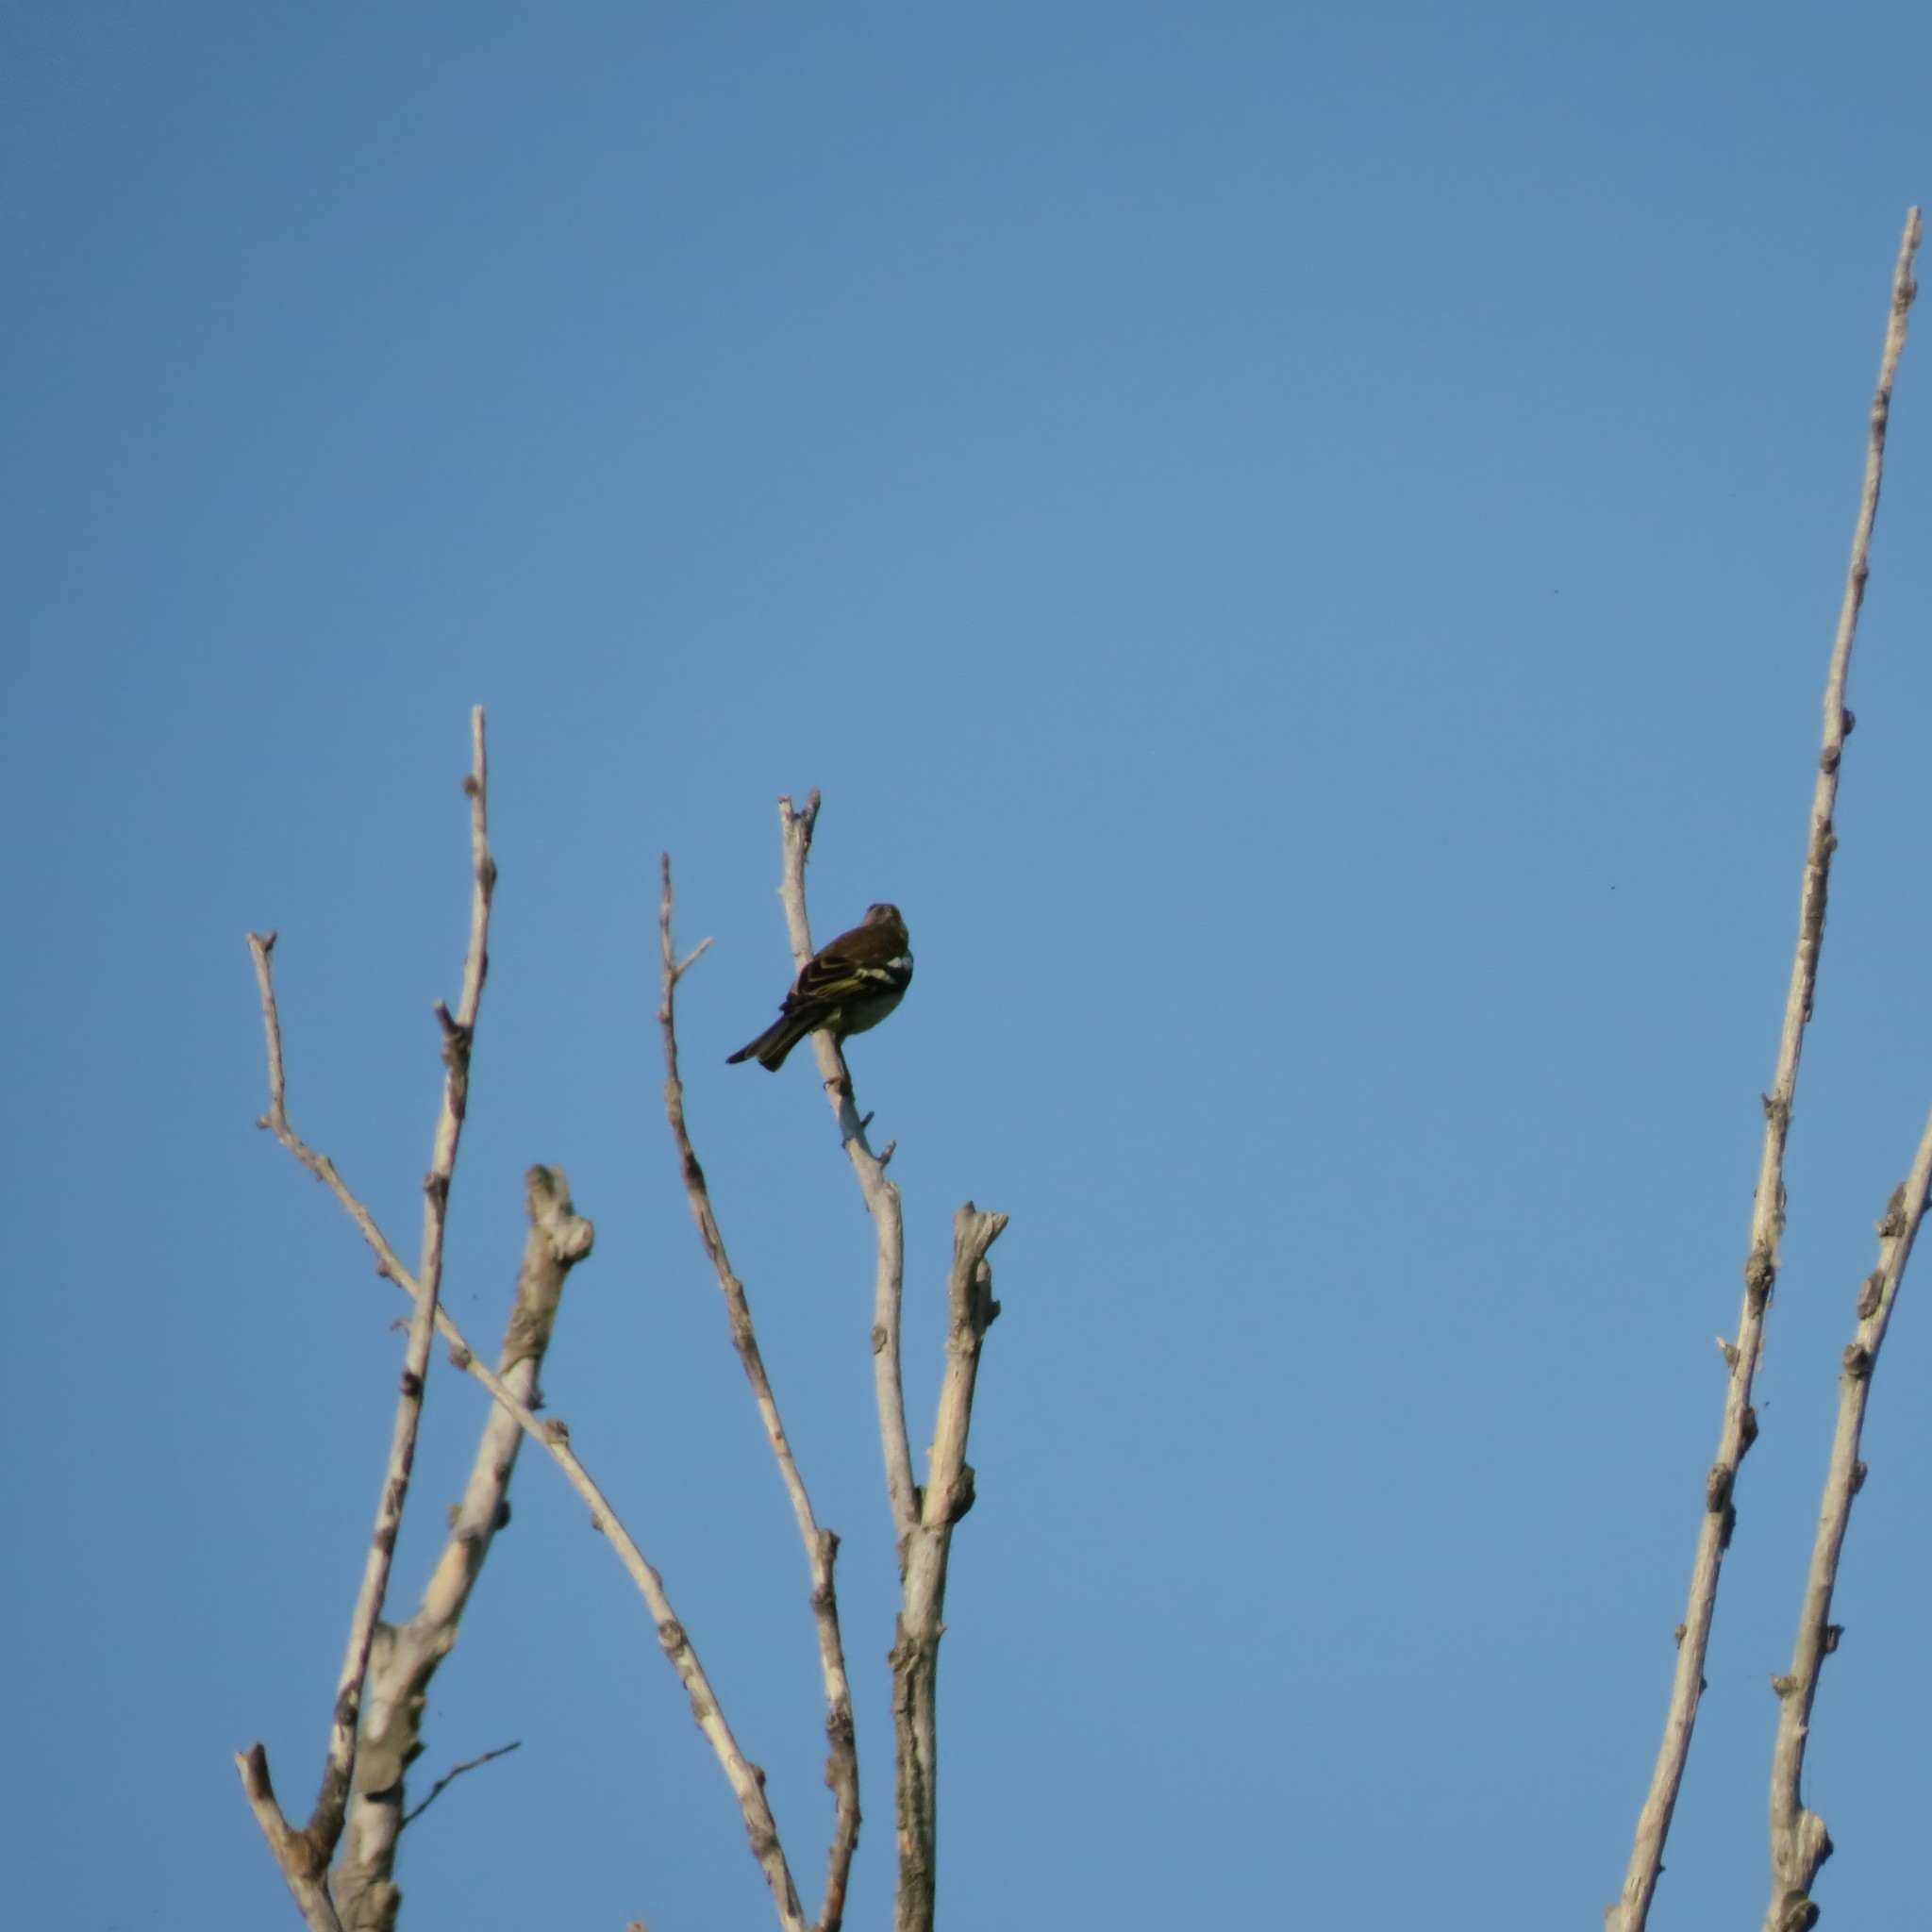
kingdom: Animalia
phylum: Chordata
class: Aves
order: Passeriformes
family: Fringillidae
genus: Fringilla
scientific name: Fringilla coelebs
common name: Common chaffinch
